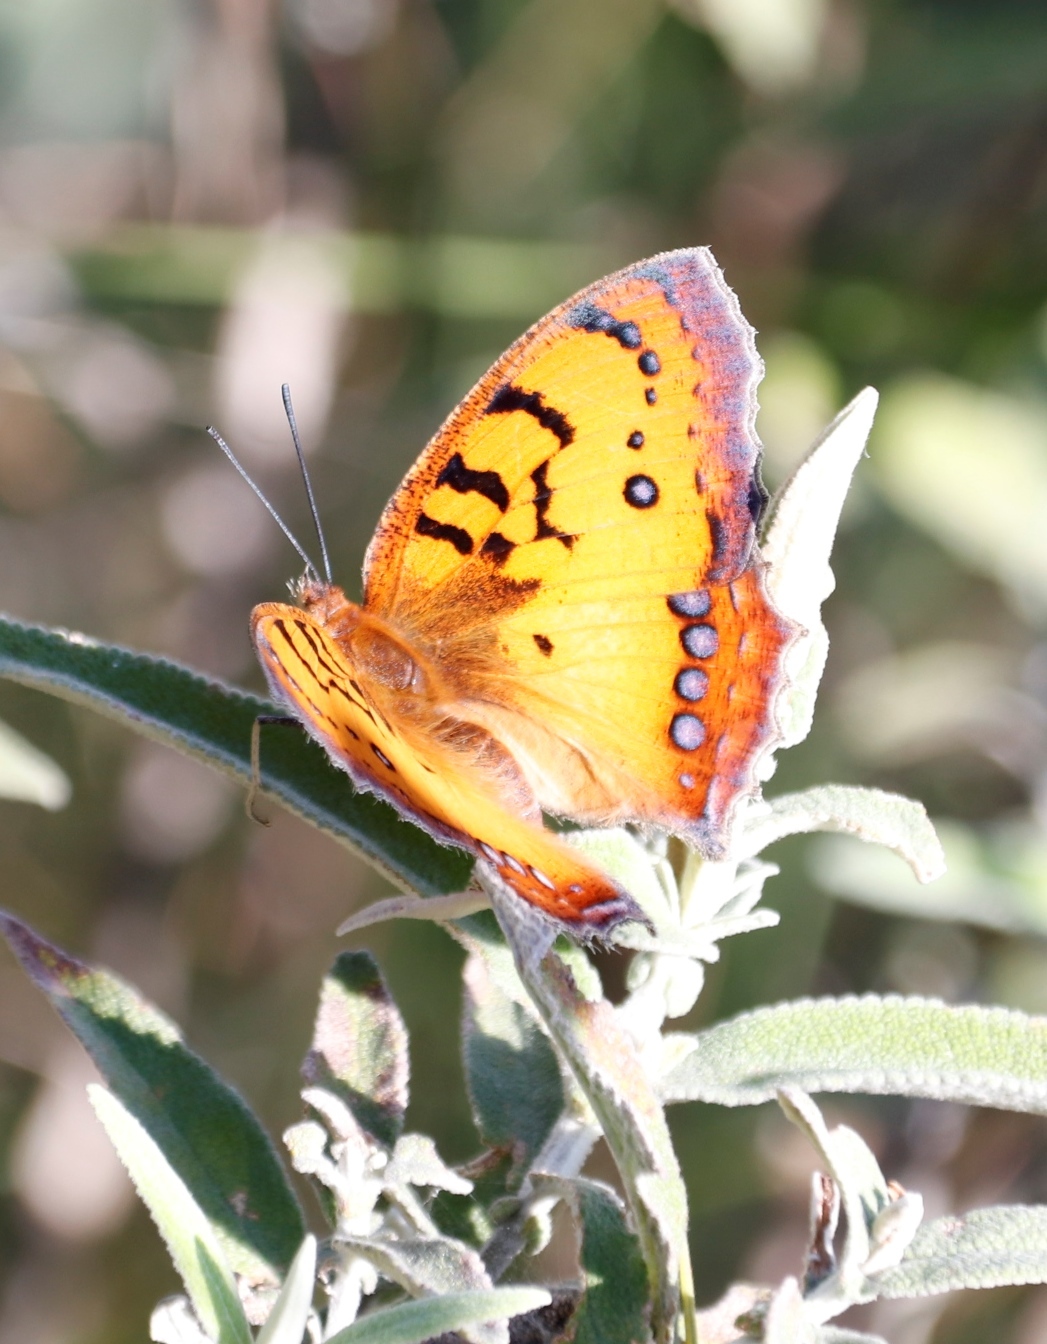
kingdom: Animalia
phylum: Arthropoda
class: Insecta
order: Lepidoptera
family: Nymphalidae
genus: Catacroptera
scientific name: Catacroptera cloanthe
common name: Pirate
